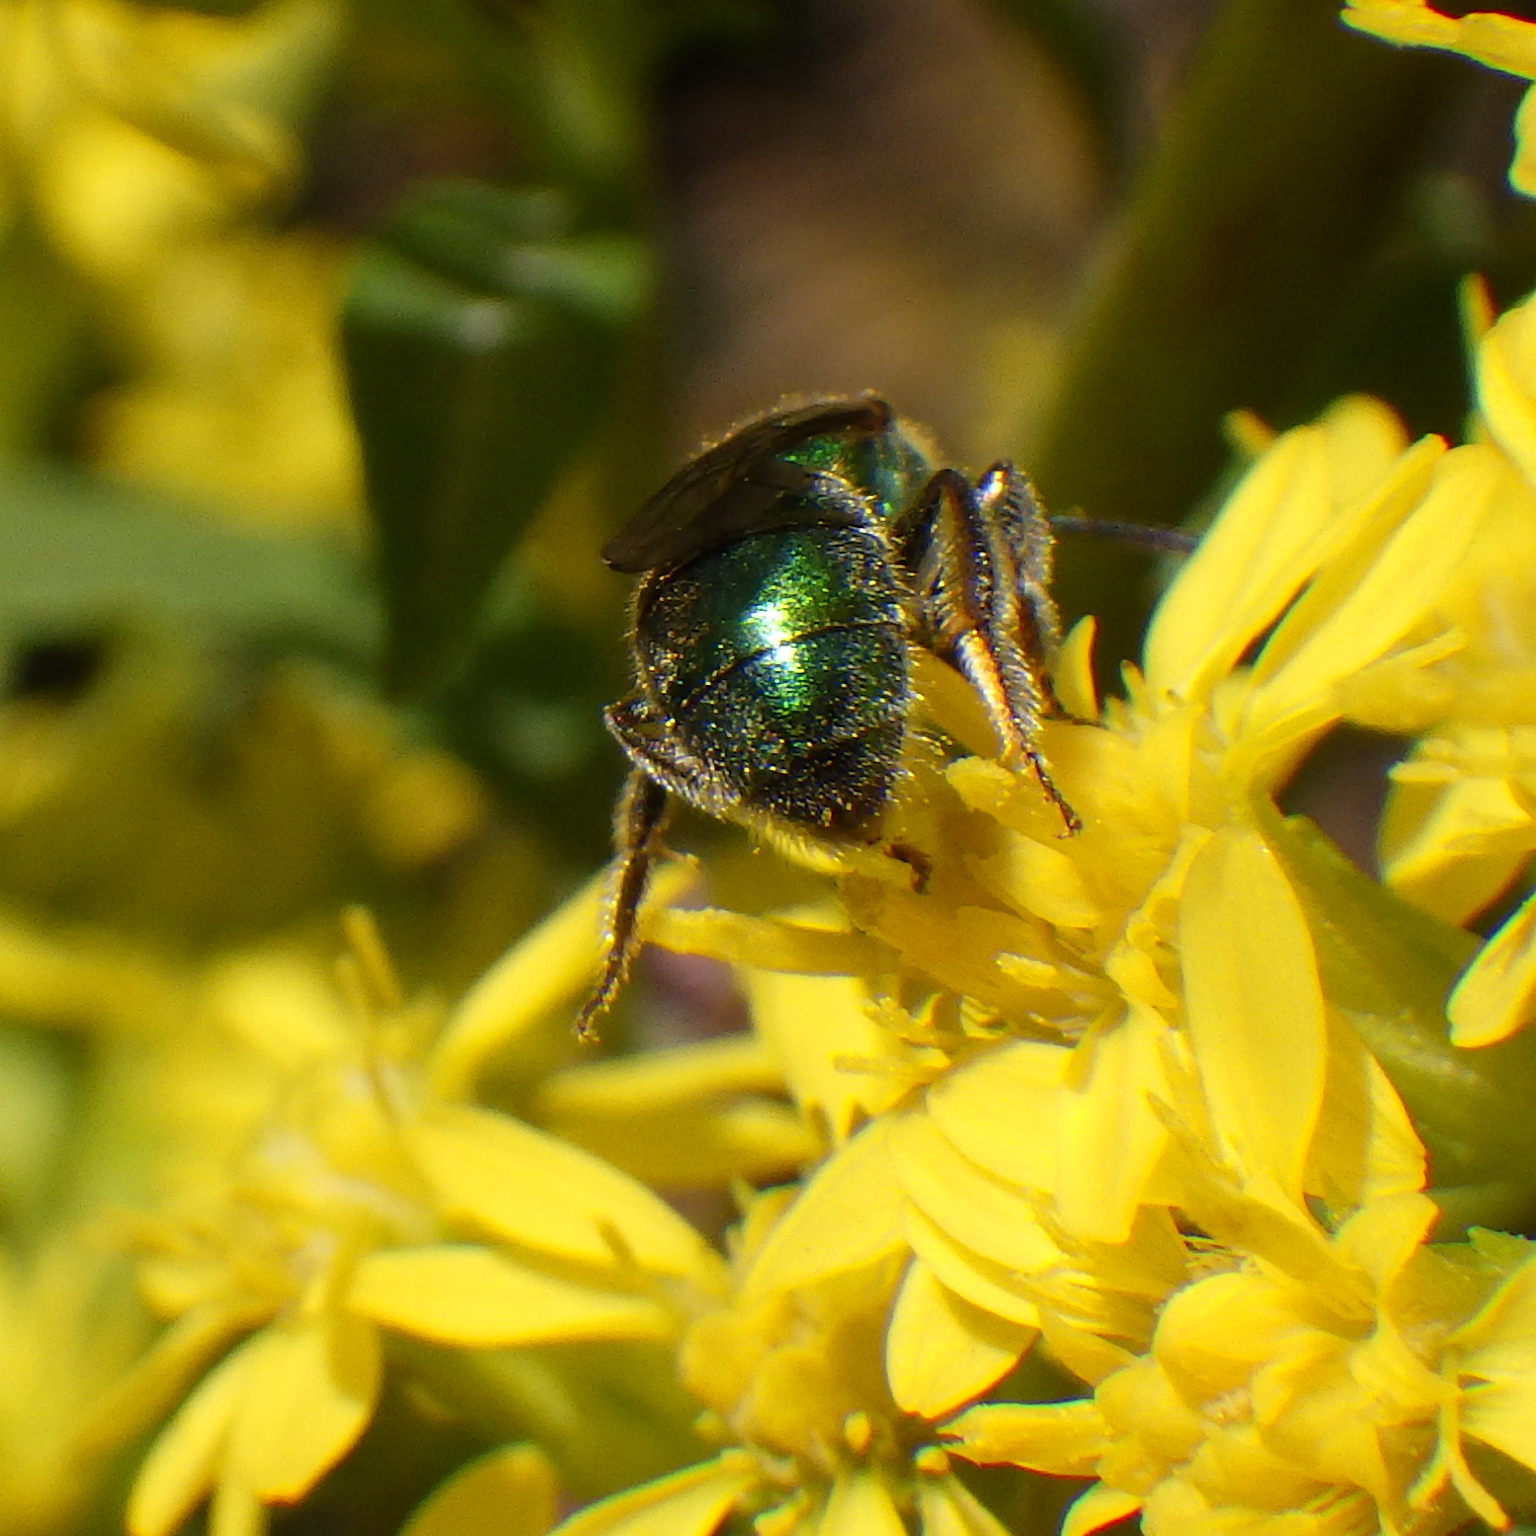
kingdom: Animalia
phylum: Arthropoda
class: Insecta
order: Hymenoptera
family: Halictidae
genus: Augochlorella
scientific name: Augochlorella aurata
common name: Golden sweat bee
